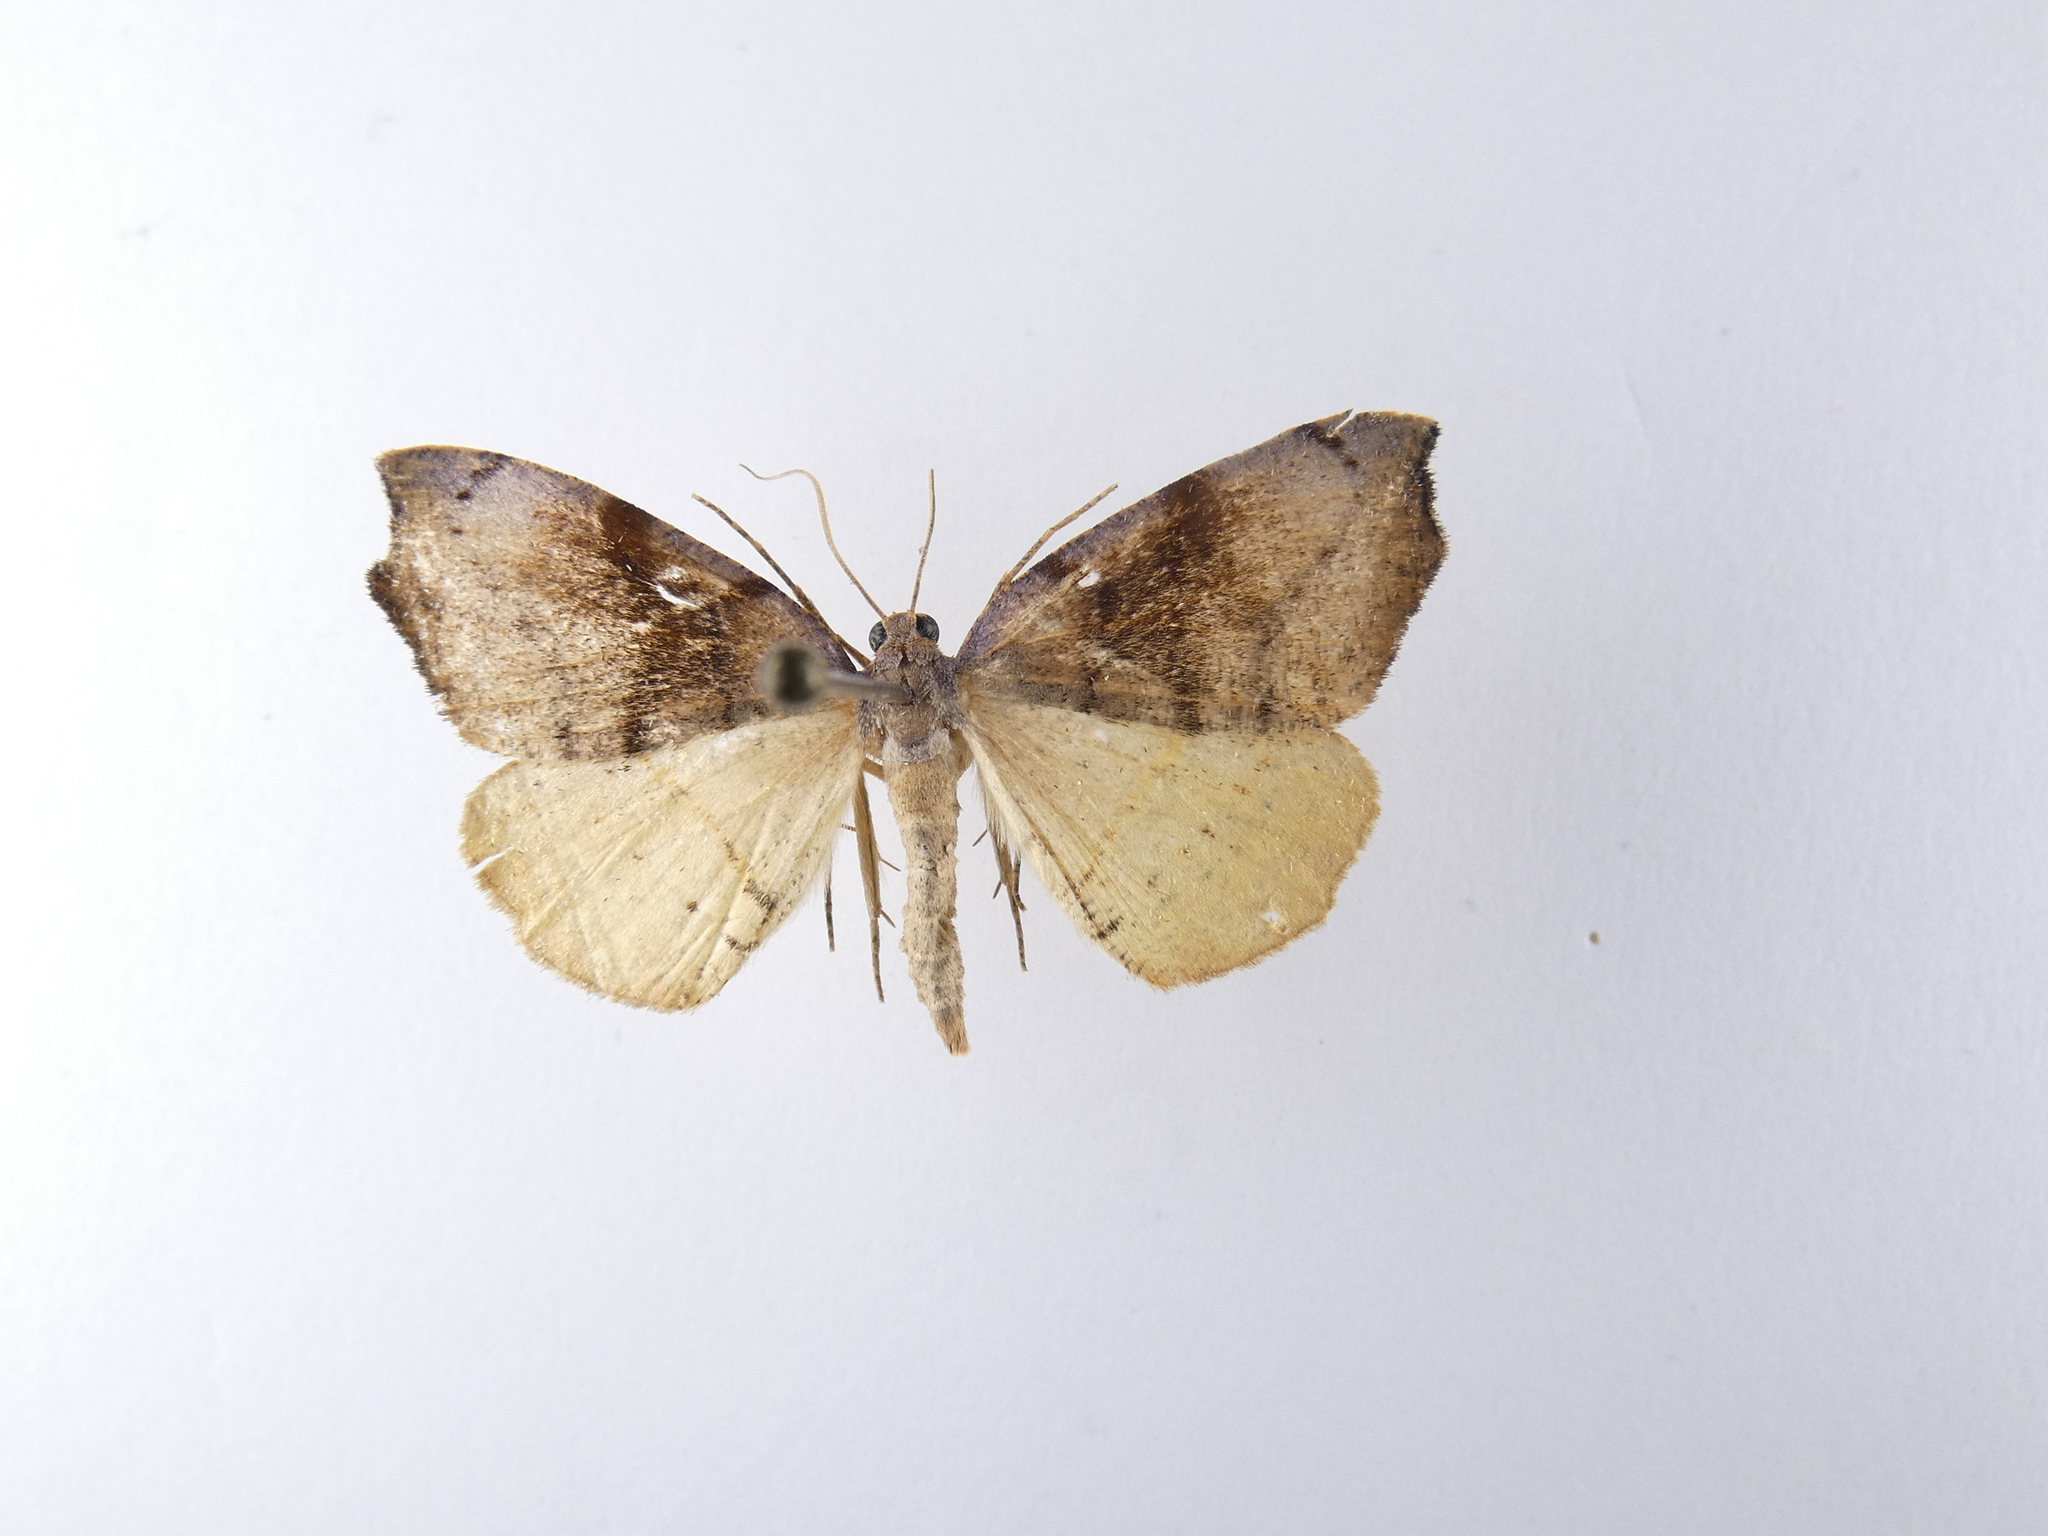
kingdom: Animalia
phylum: Arthropoda
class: Insecta
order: Lepidoptera
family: Geometridae
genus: Sestra
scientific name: Sestra flexata
